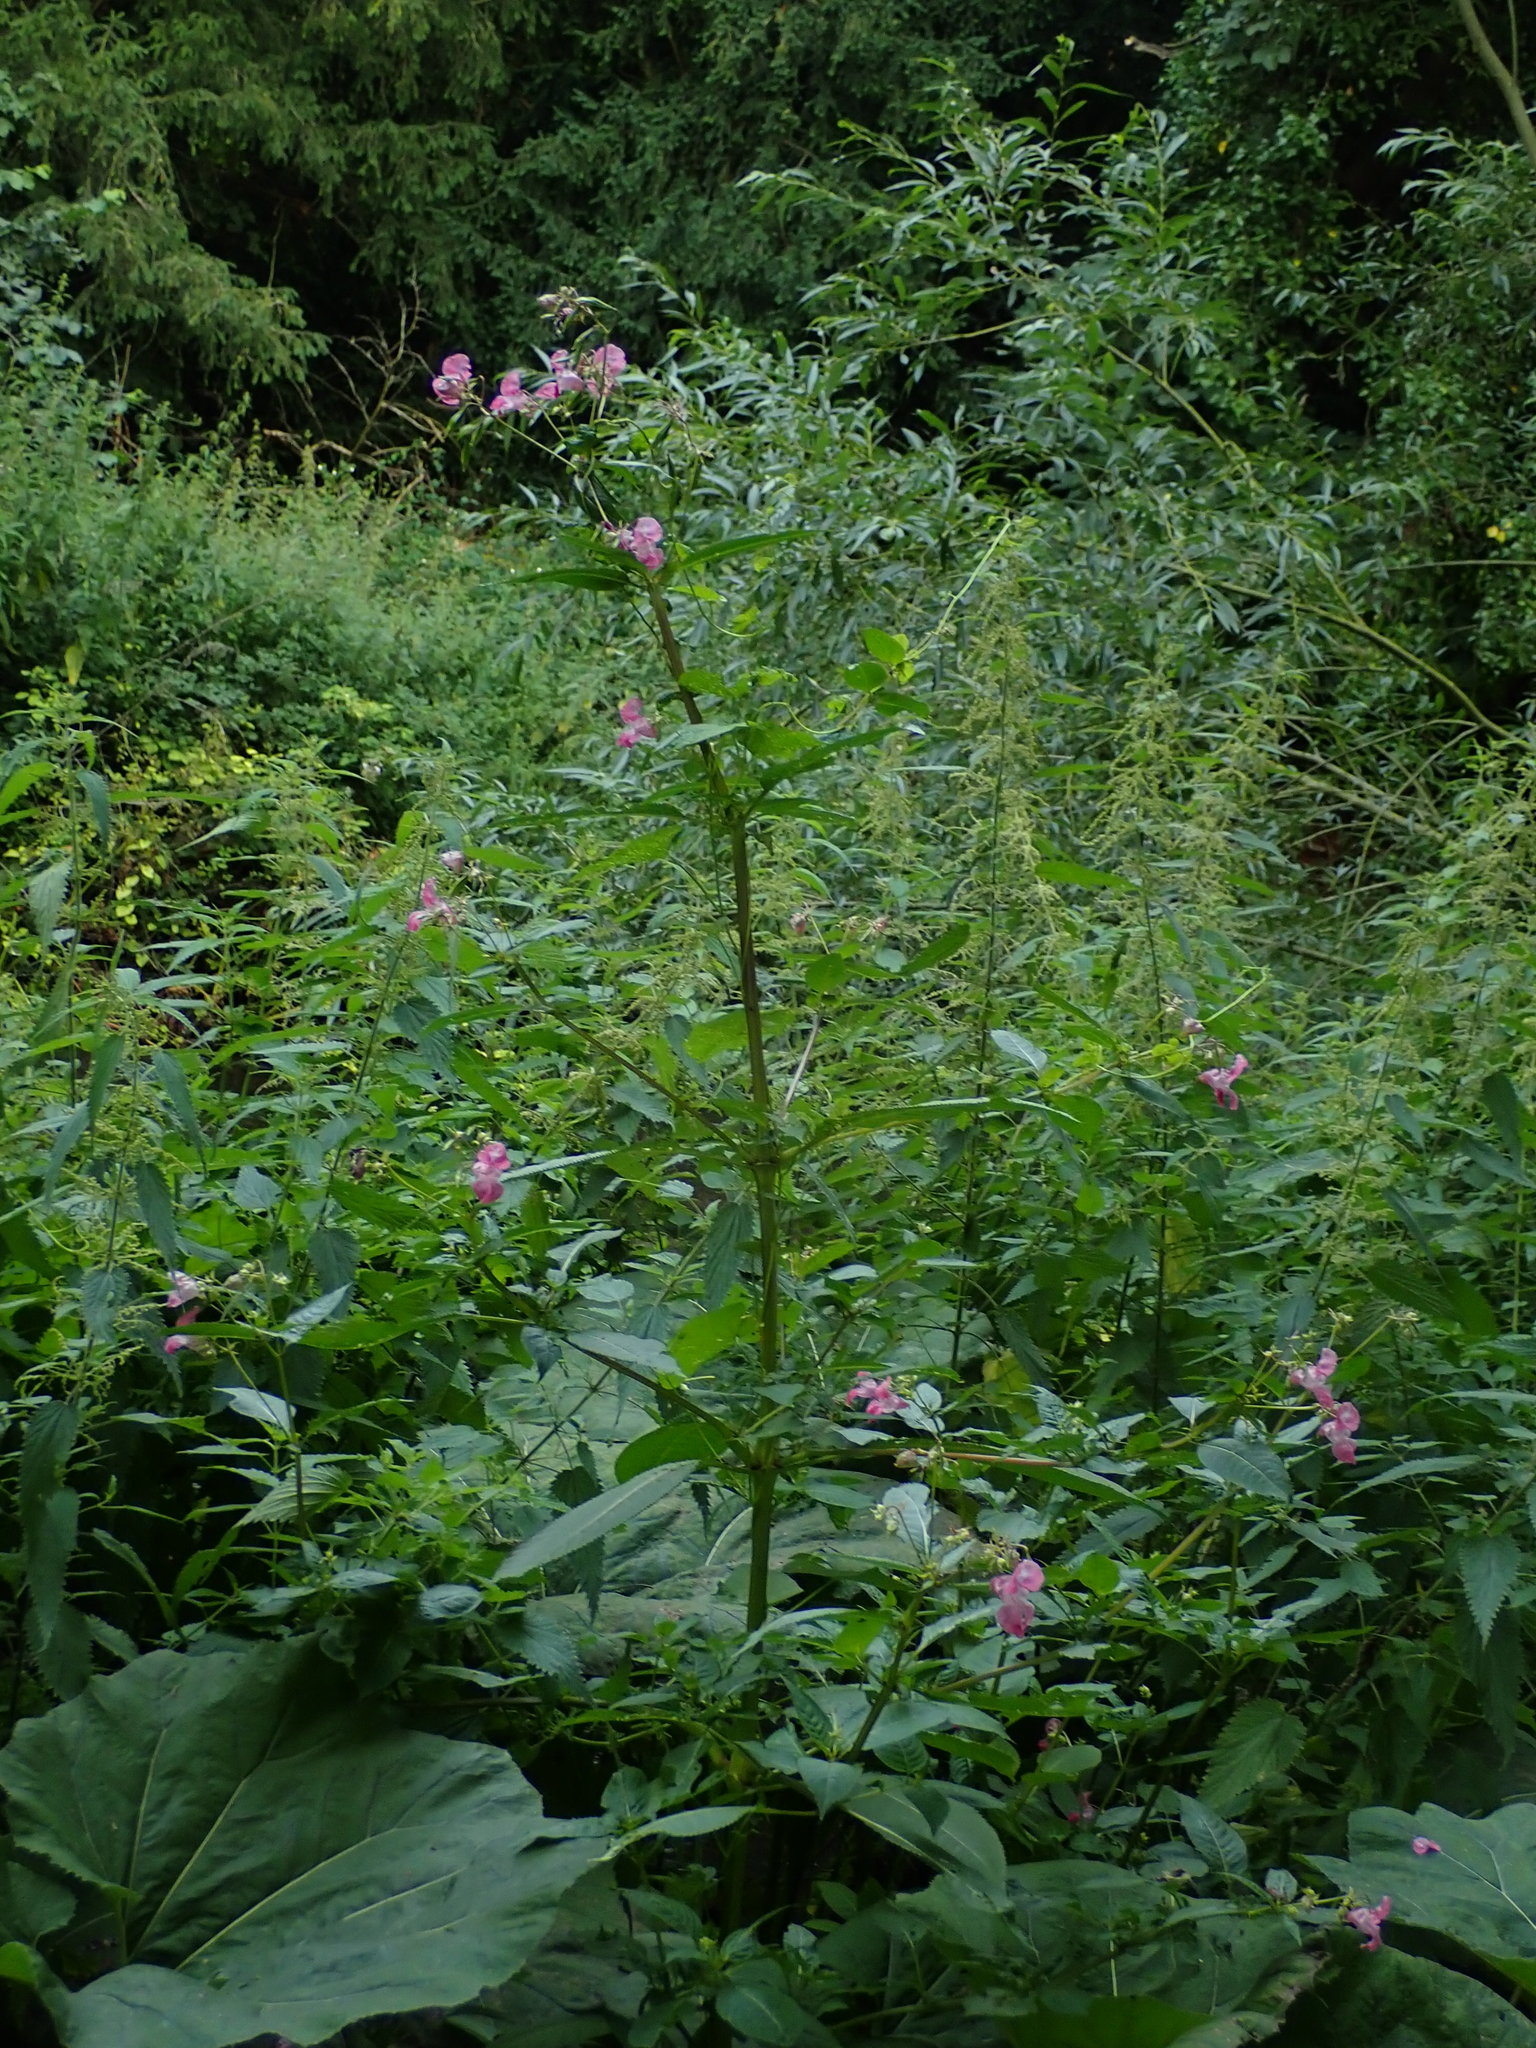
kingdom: Plantae
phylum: Tracheophyta
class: Magnoliopsida
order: Ericales
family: Balsaminaceae
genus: Impatiens
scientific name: Impatiens glandulifera
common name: Himalayan balsam
